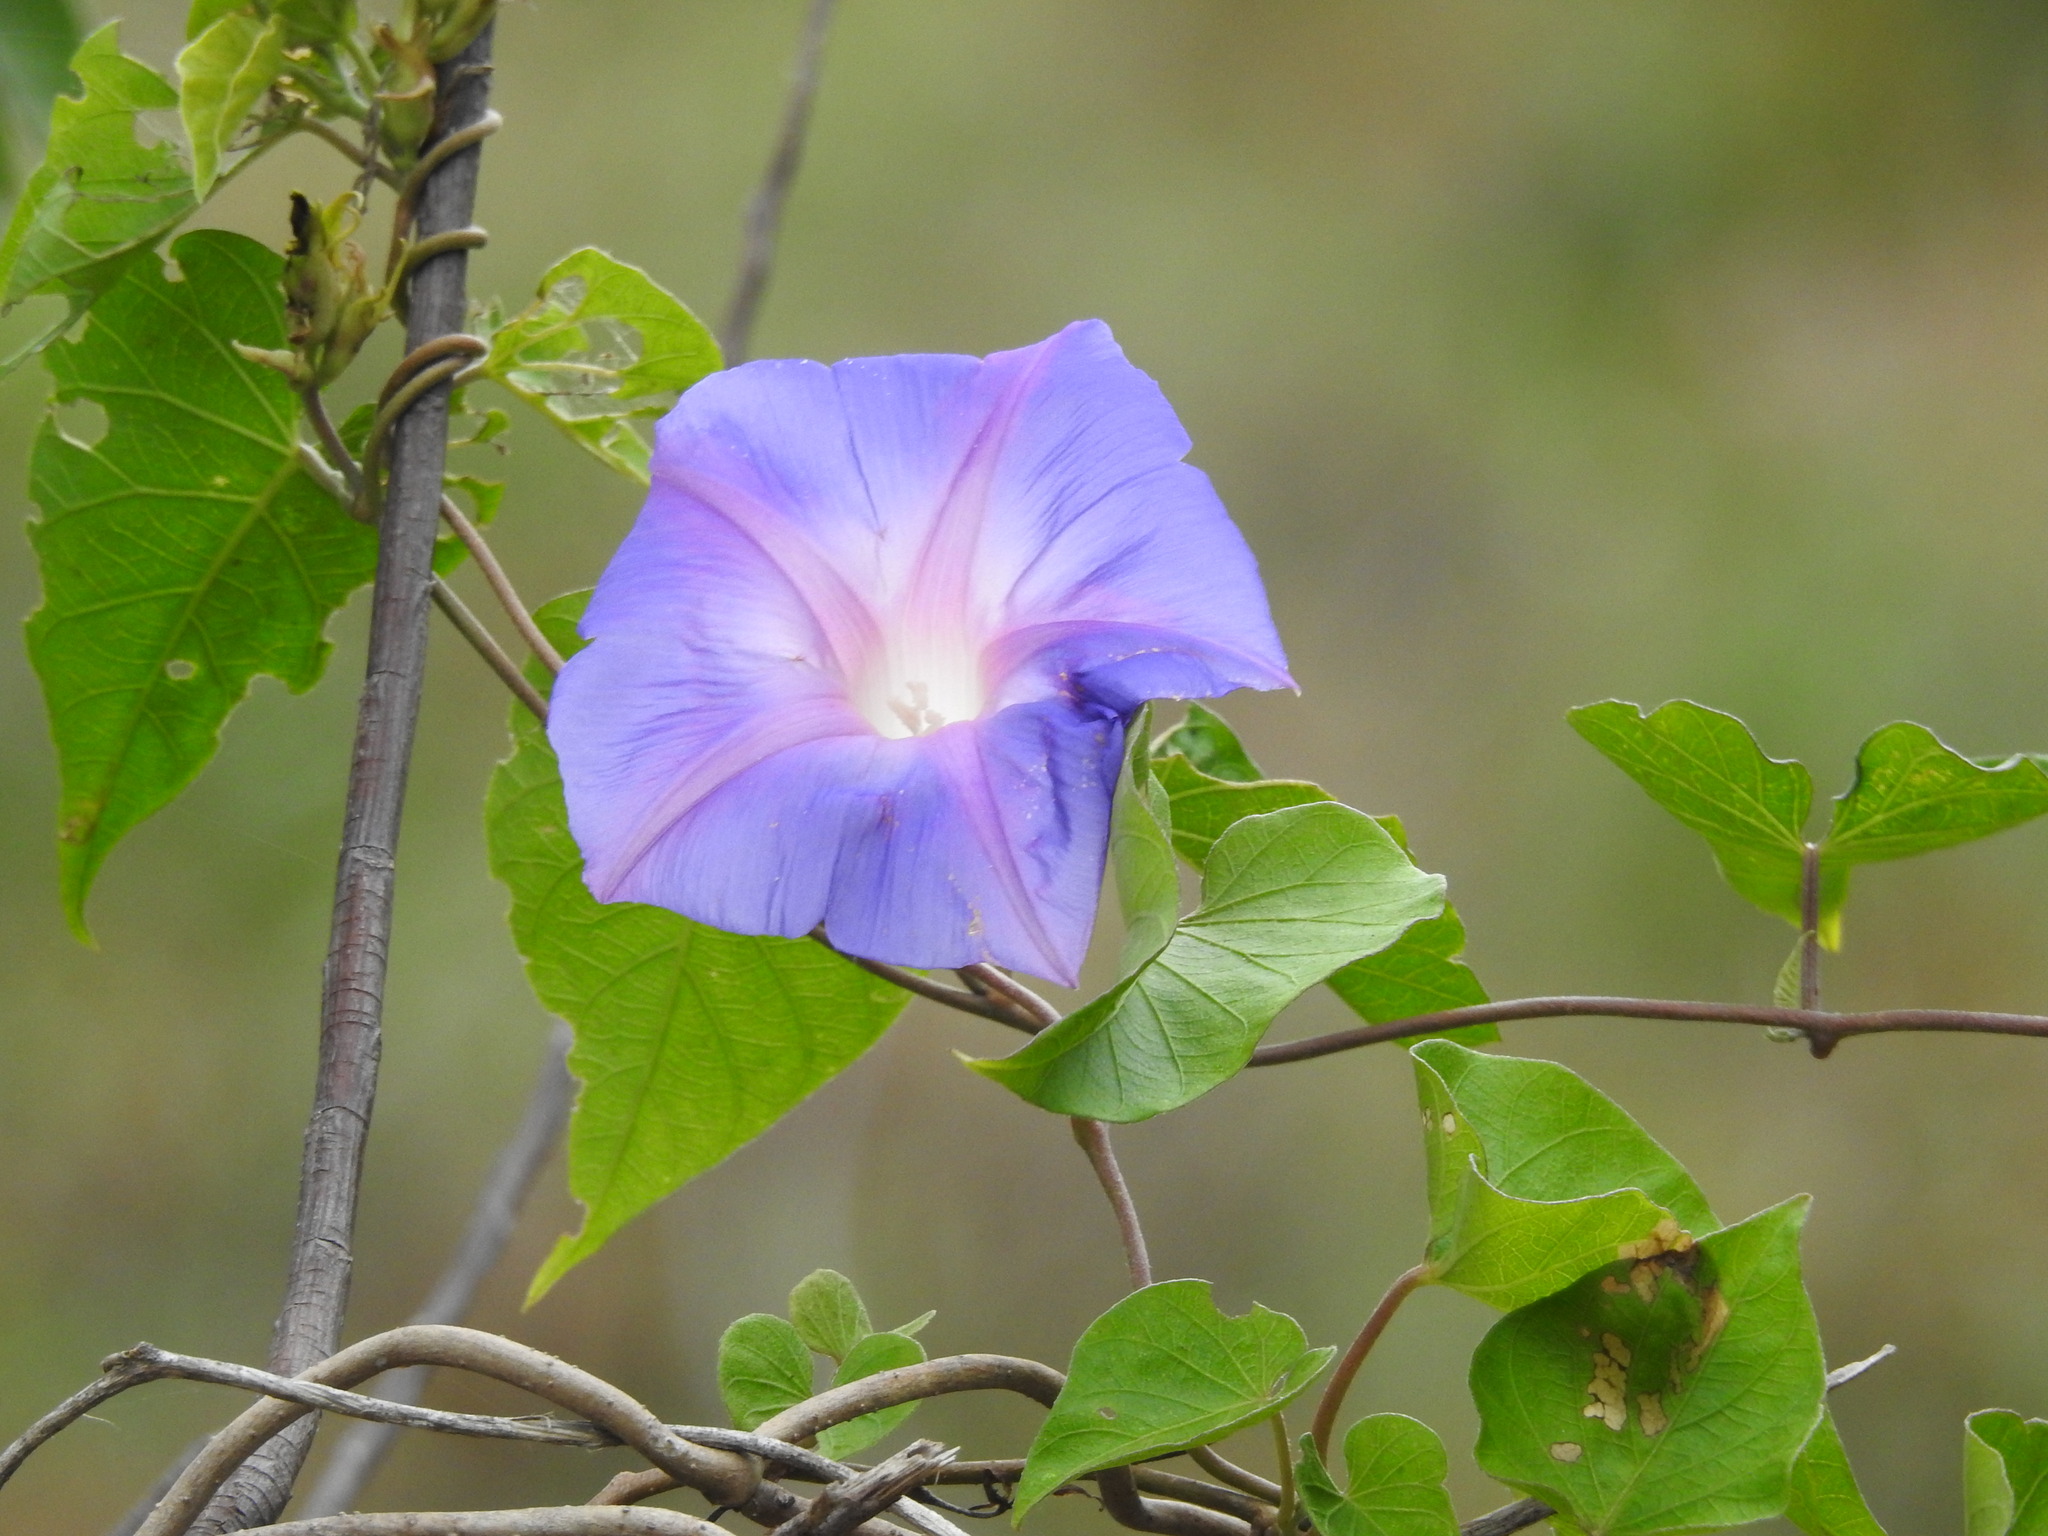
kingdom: Plantae
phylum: Tracheophyta
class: Magnoliopsida
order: Solanales
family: Convolvulaceae
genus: Ipomoea
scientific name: Ipomoea indica
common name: Blue dawnflower
